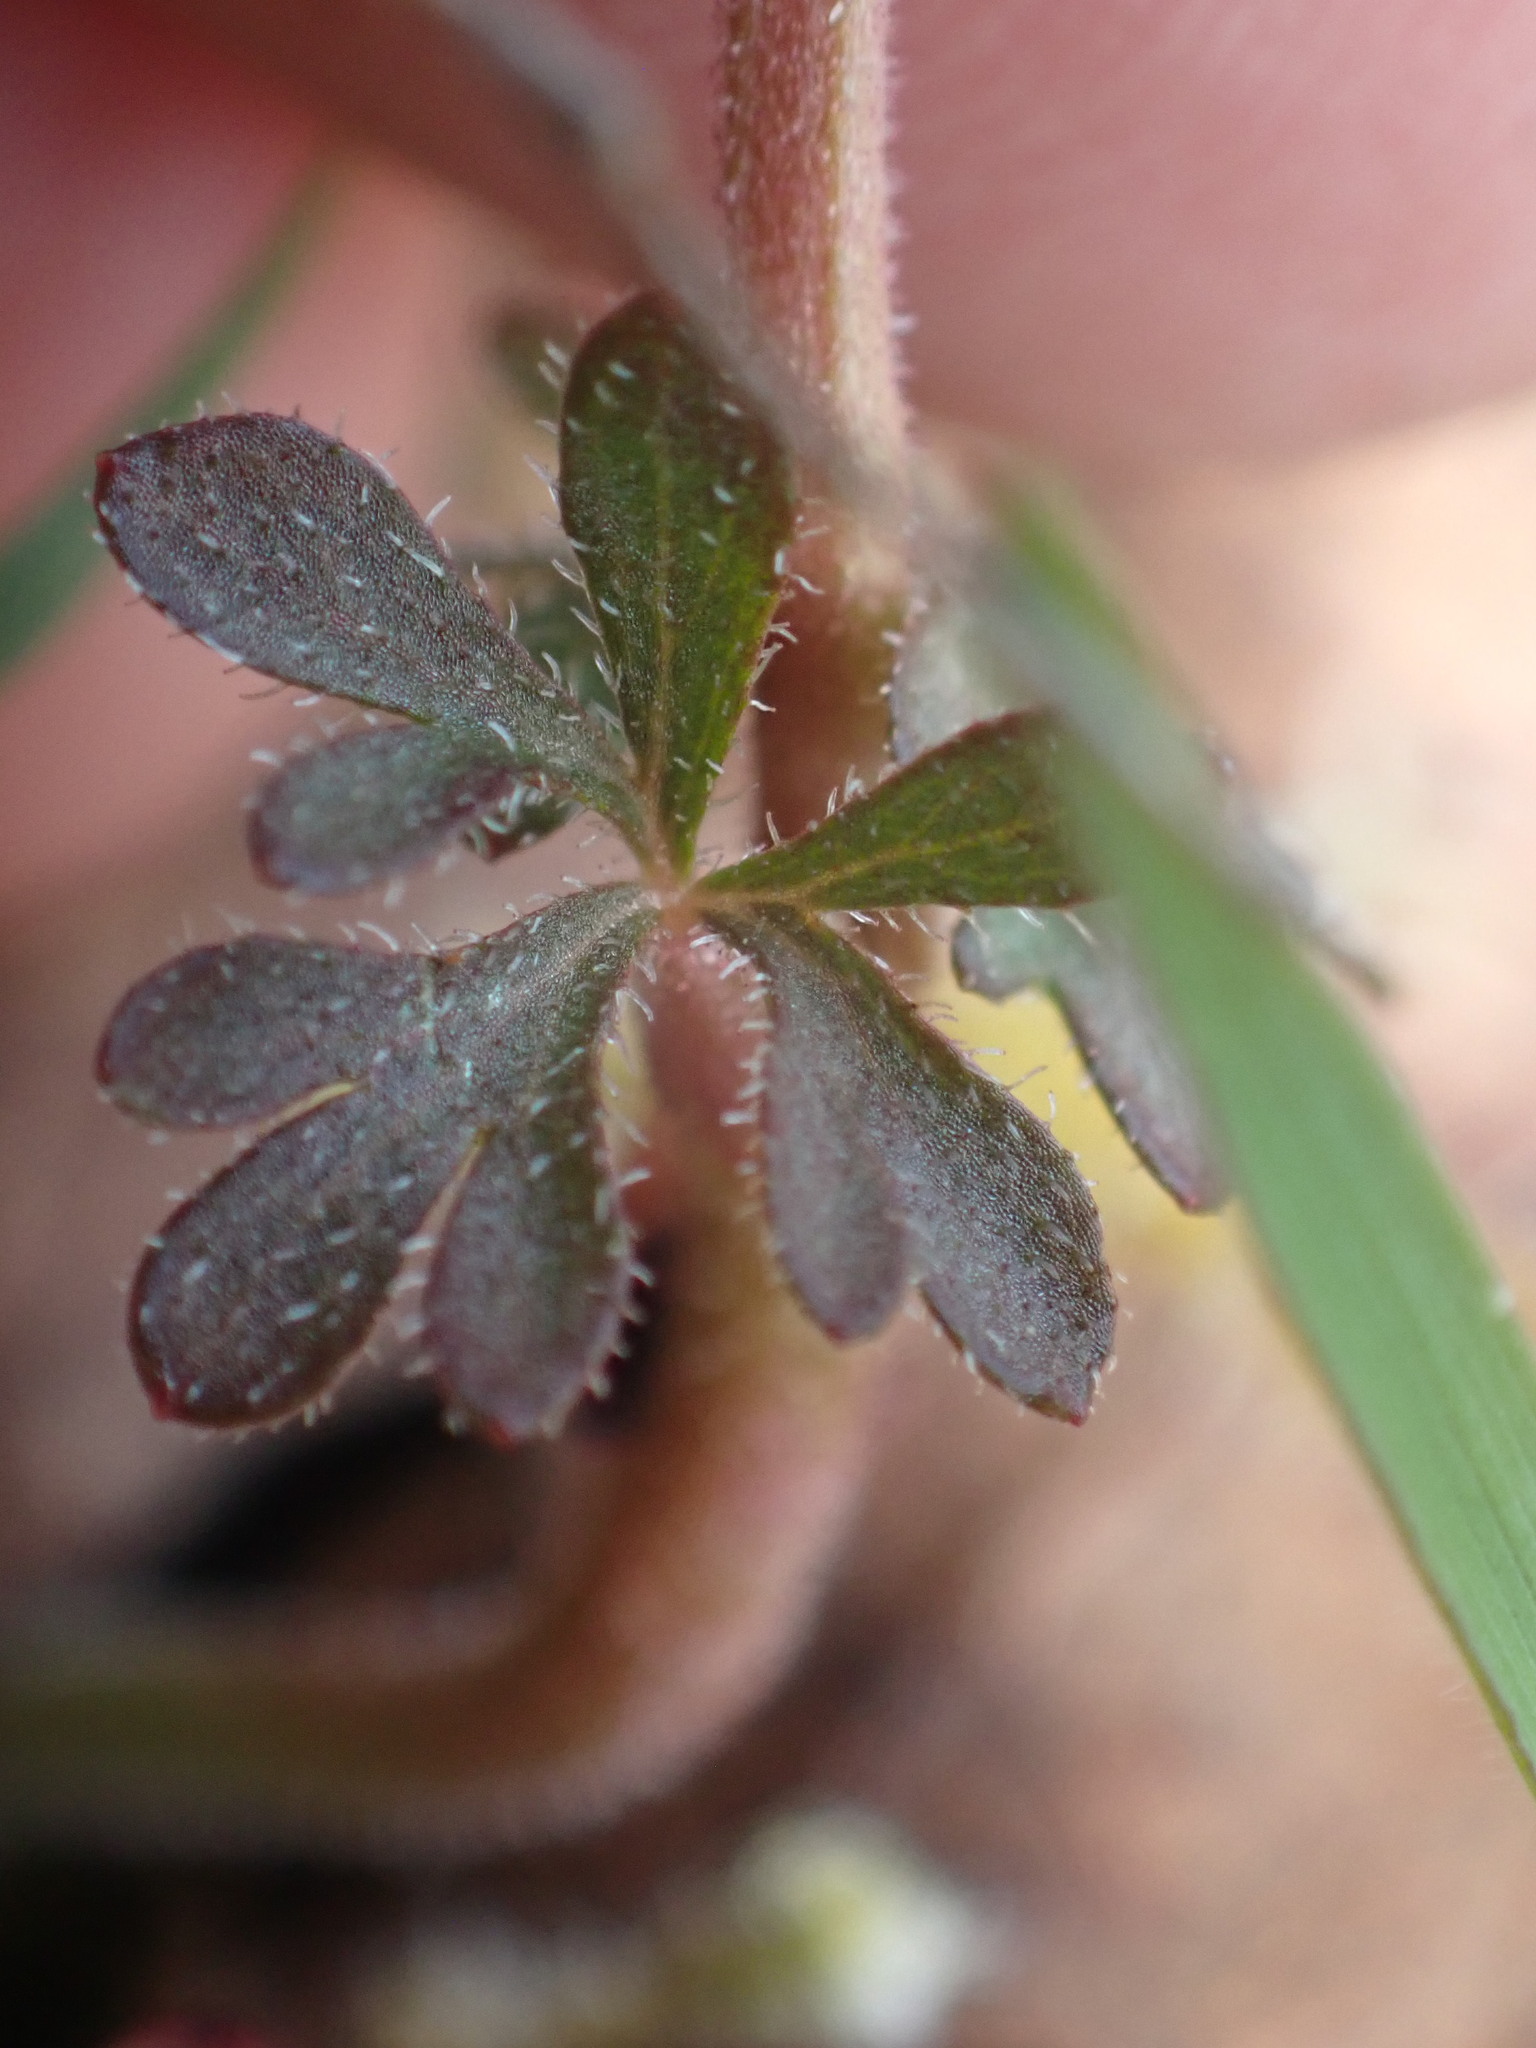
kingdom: Plantae
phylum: Tracheophyta
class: Magnoliopsida
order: Saxifragales
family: Saxifragaceae
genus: Lithophragma
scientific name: Lithophragma glabrum
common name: Bulbous prairie-star
